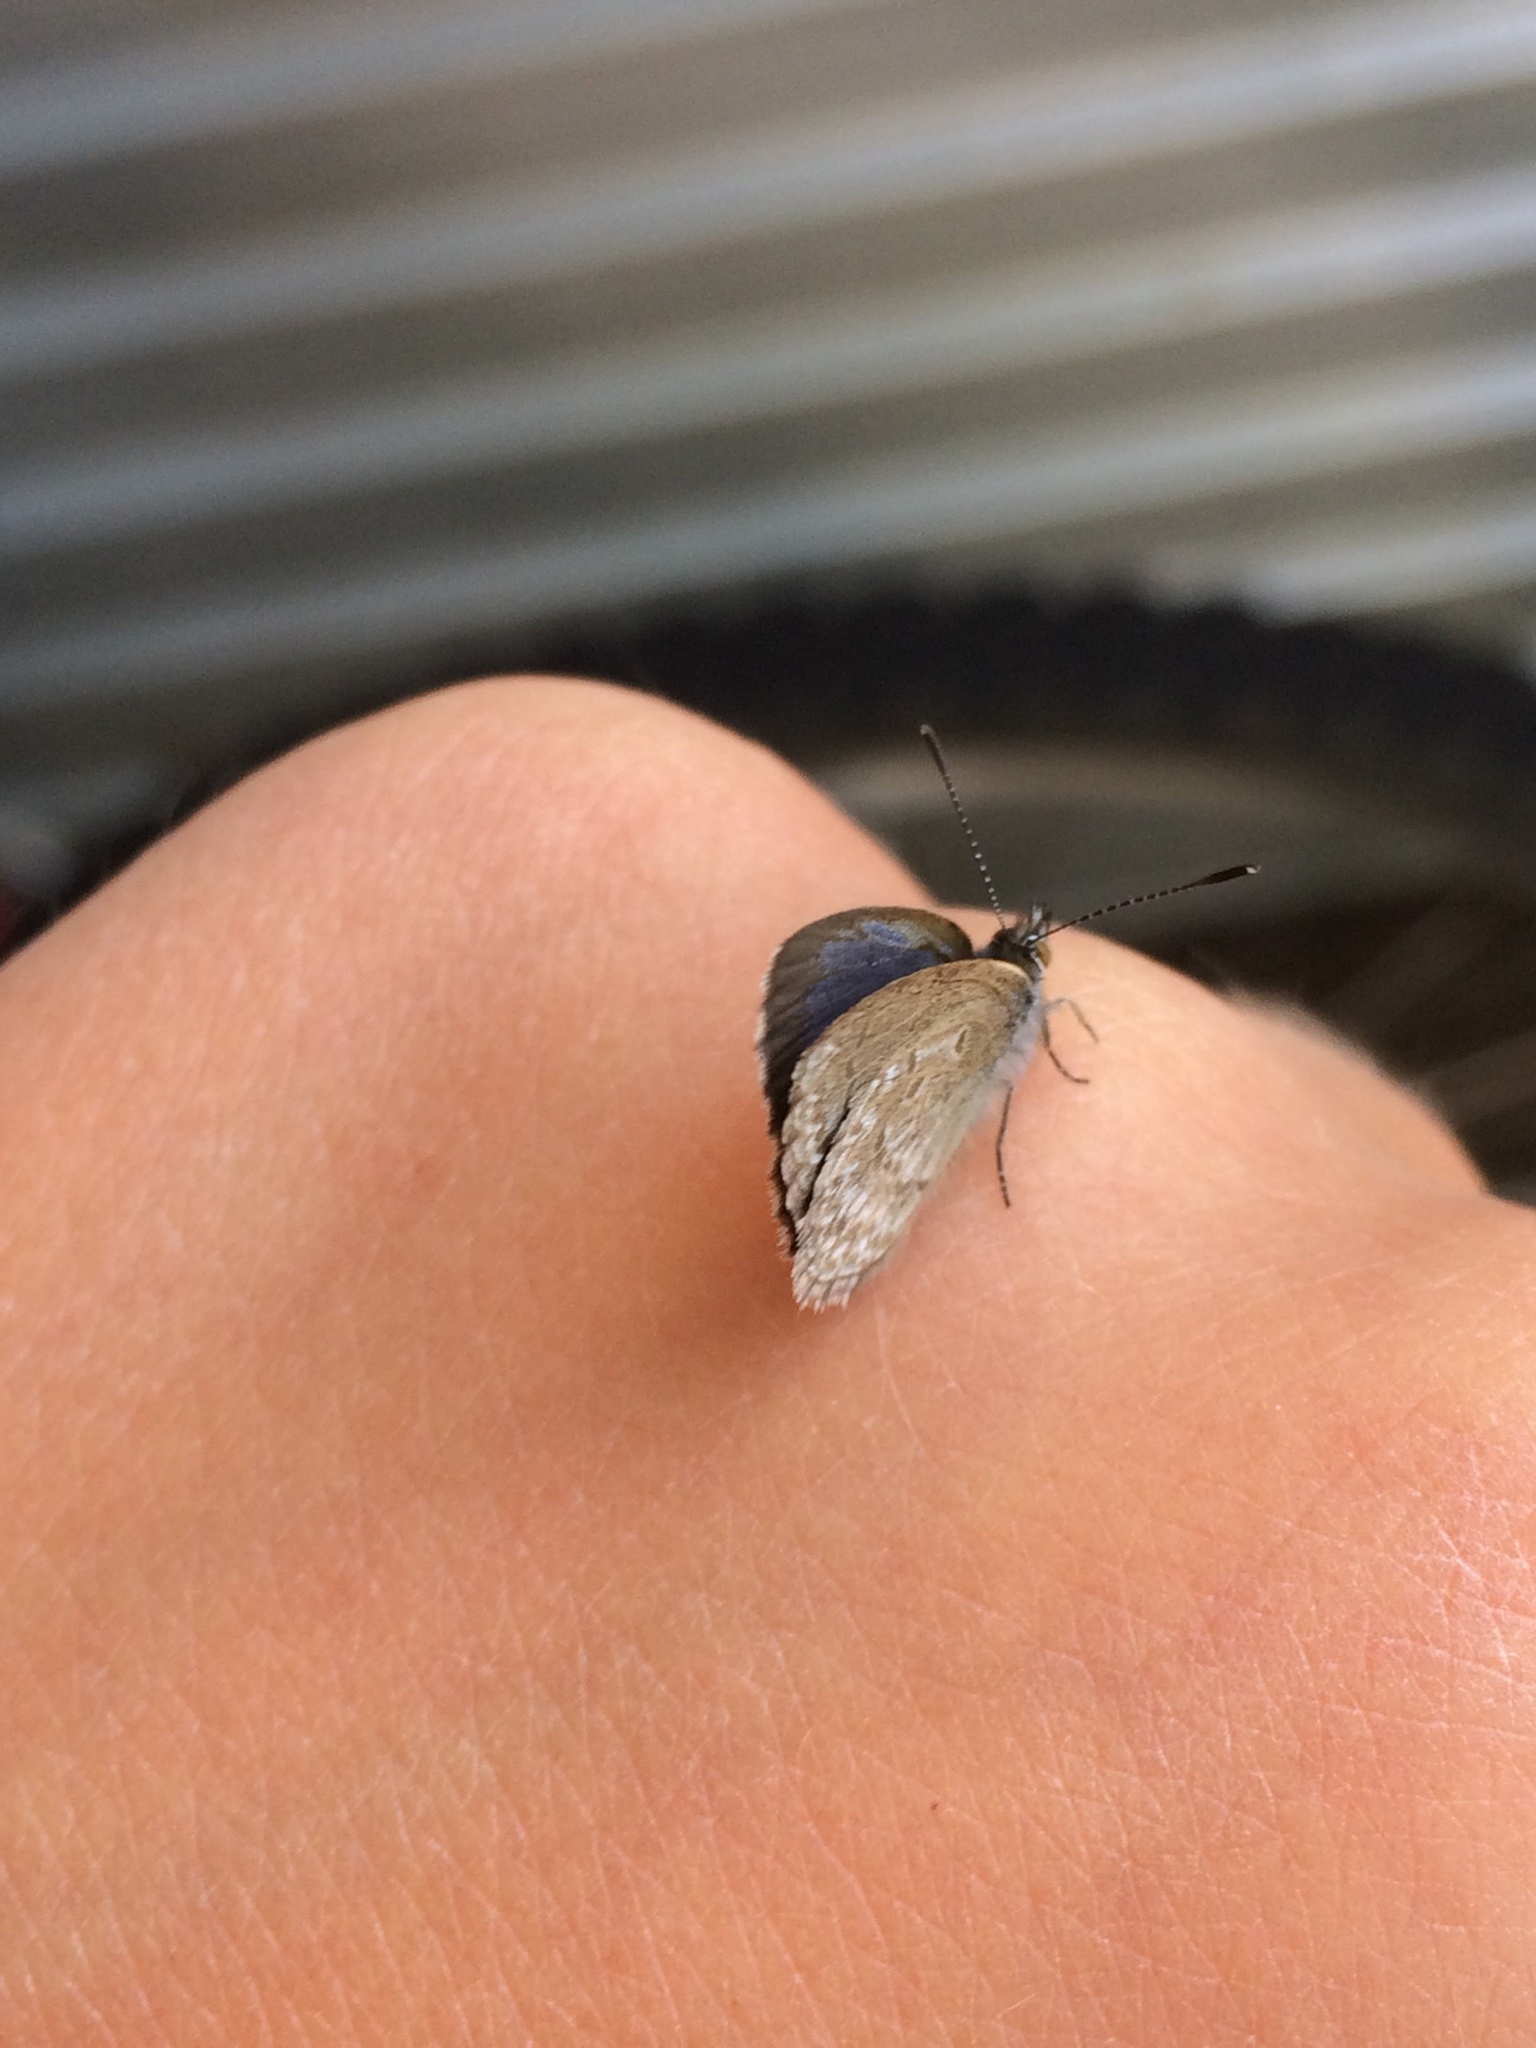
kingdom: Animalia
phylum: Arthropoda
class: Insecta
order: Lepidoptera
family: Lycaenidae
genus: Zizina
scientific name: Zizina labradus
